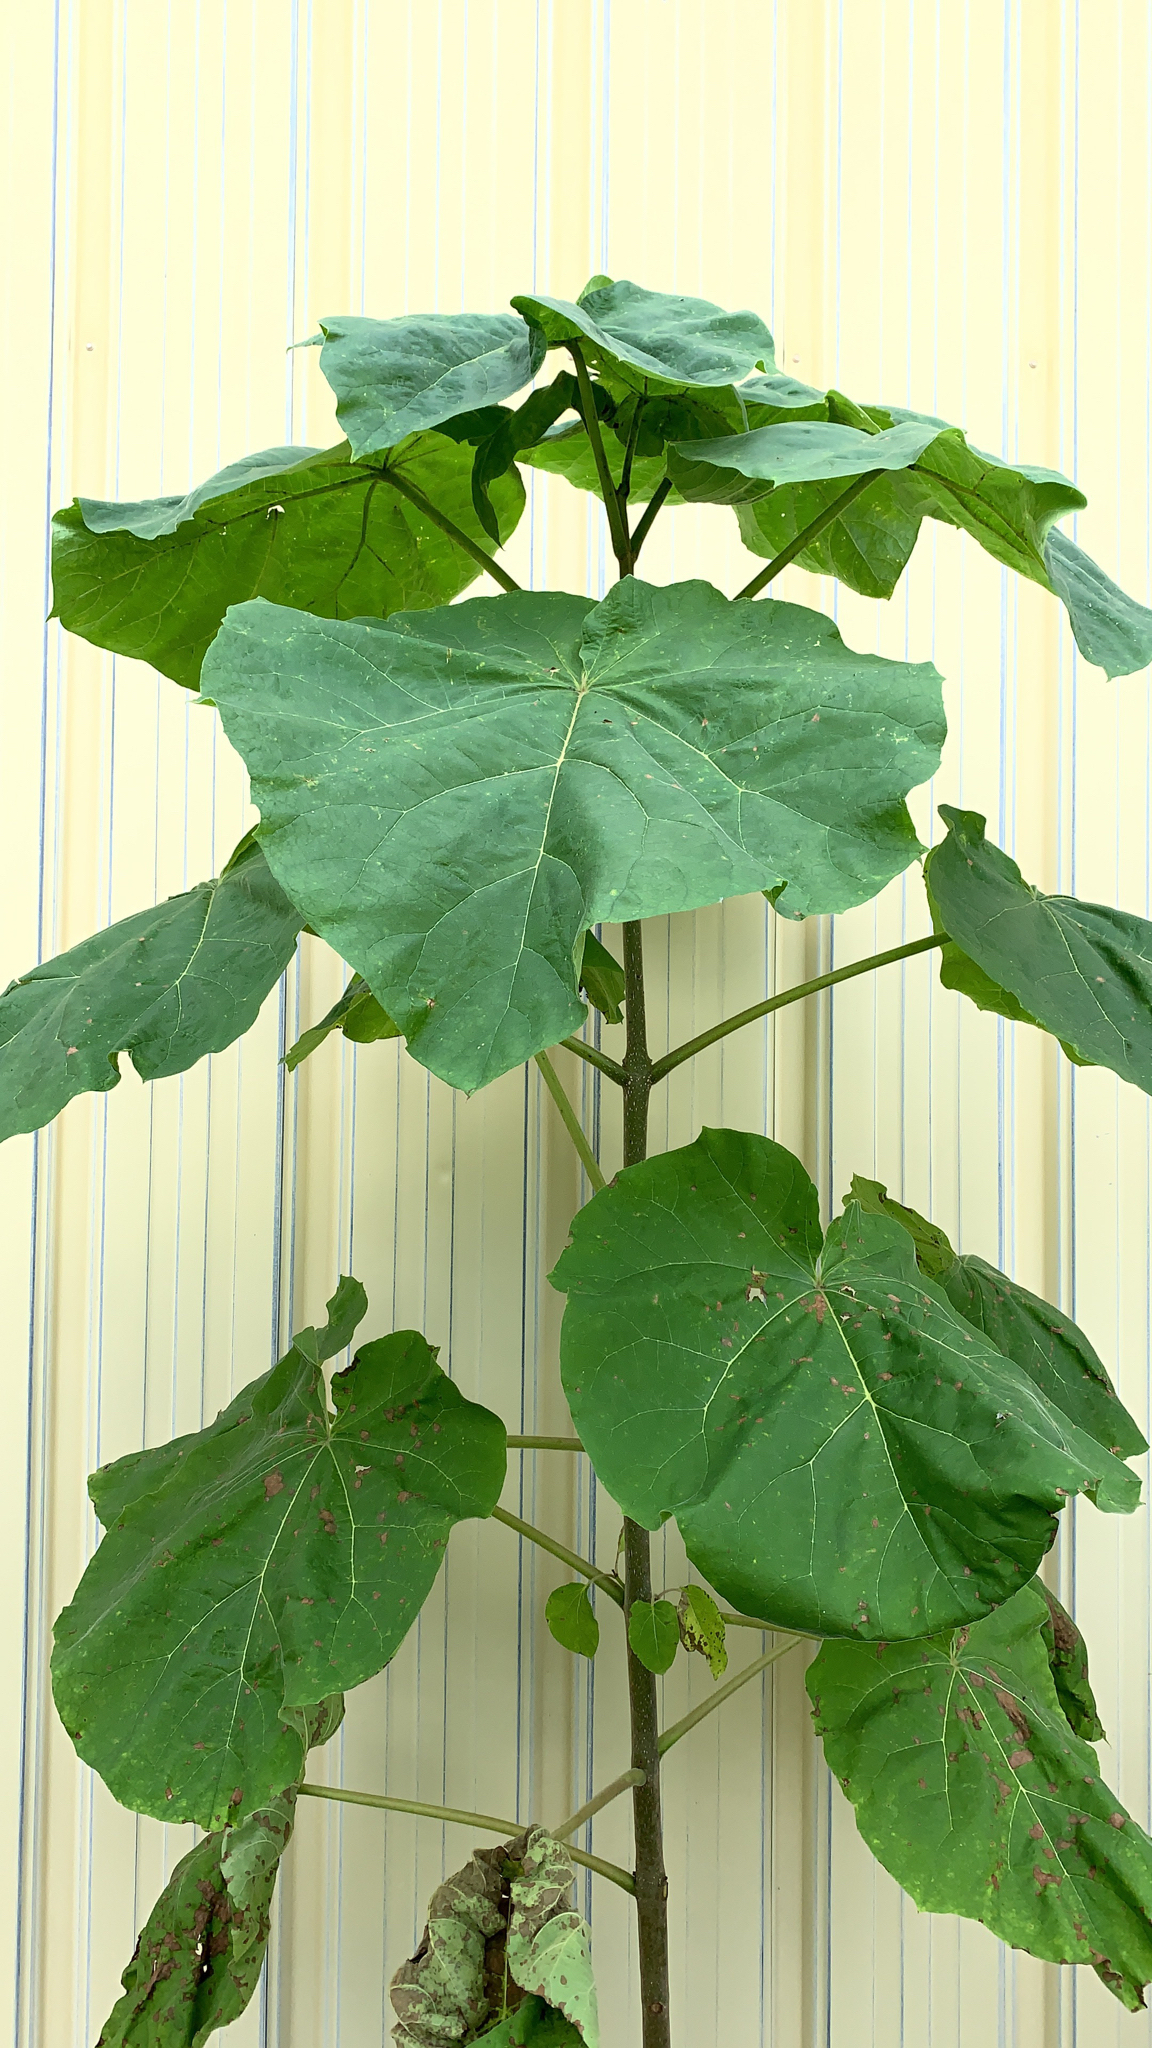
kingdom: Plantae
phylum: Tracheophyta
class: Magnoliopsida
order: Lamiales
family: Paulowniaceae
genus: Paulownia
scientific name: Paulownia tomentosa
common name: Foxglove-tree
